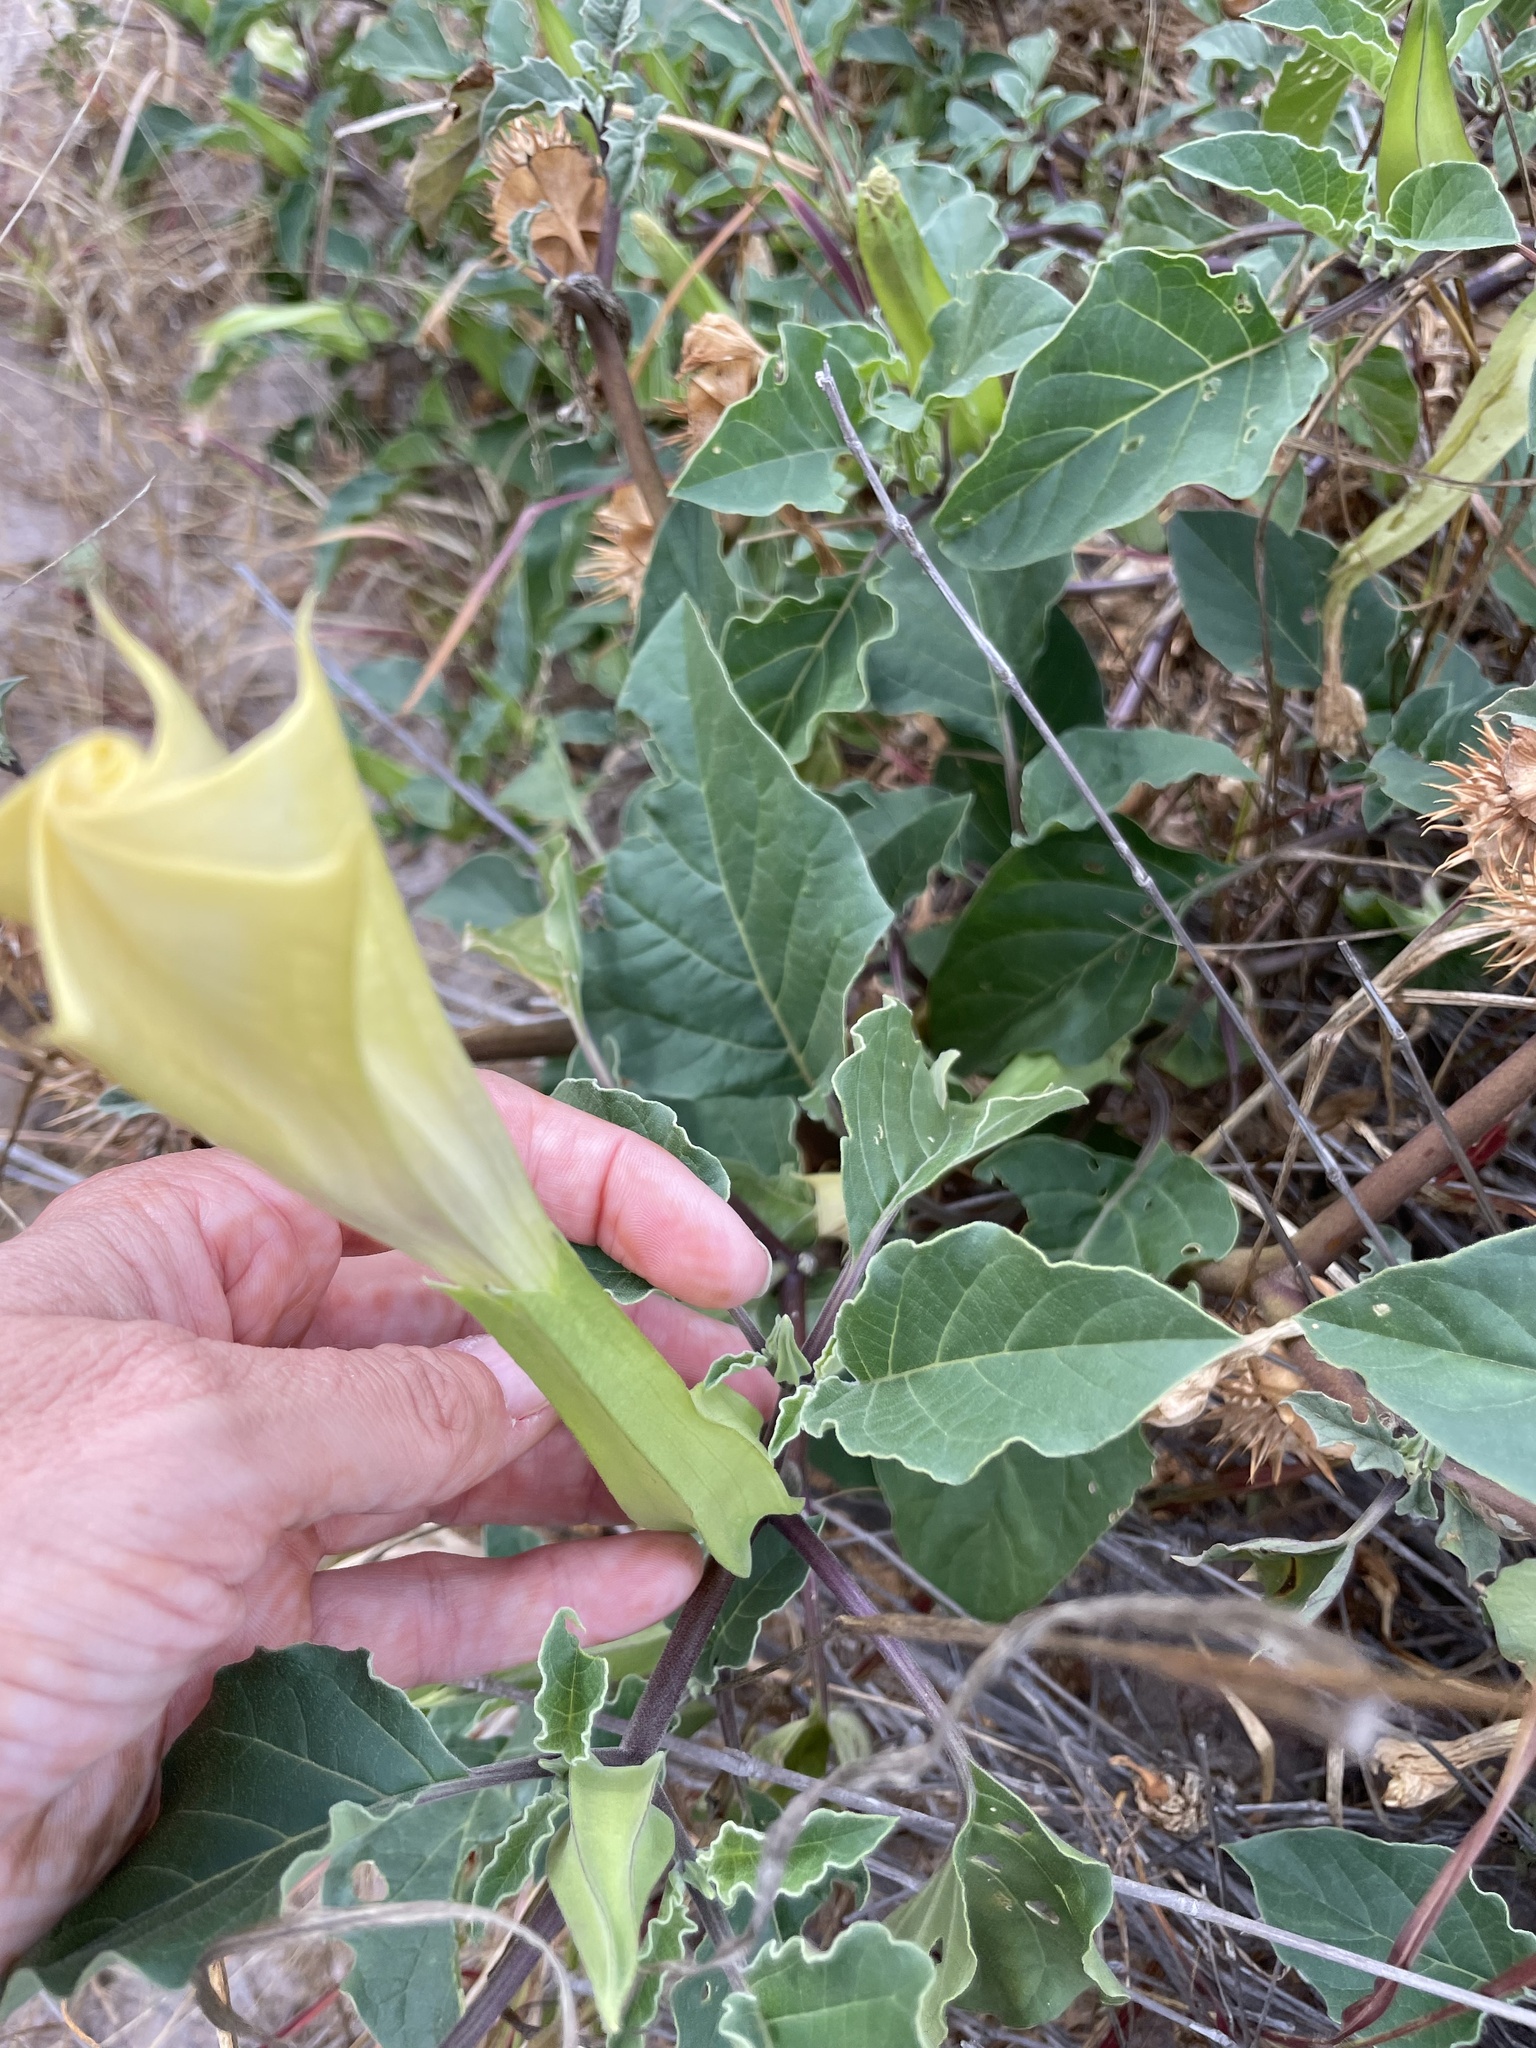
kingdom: Plantae
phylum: Tracheophyta
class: Magnoliopsida
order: Solanales
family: Solanaceae
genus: Datura
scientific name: Datura discolor
